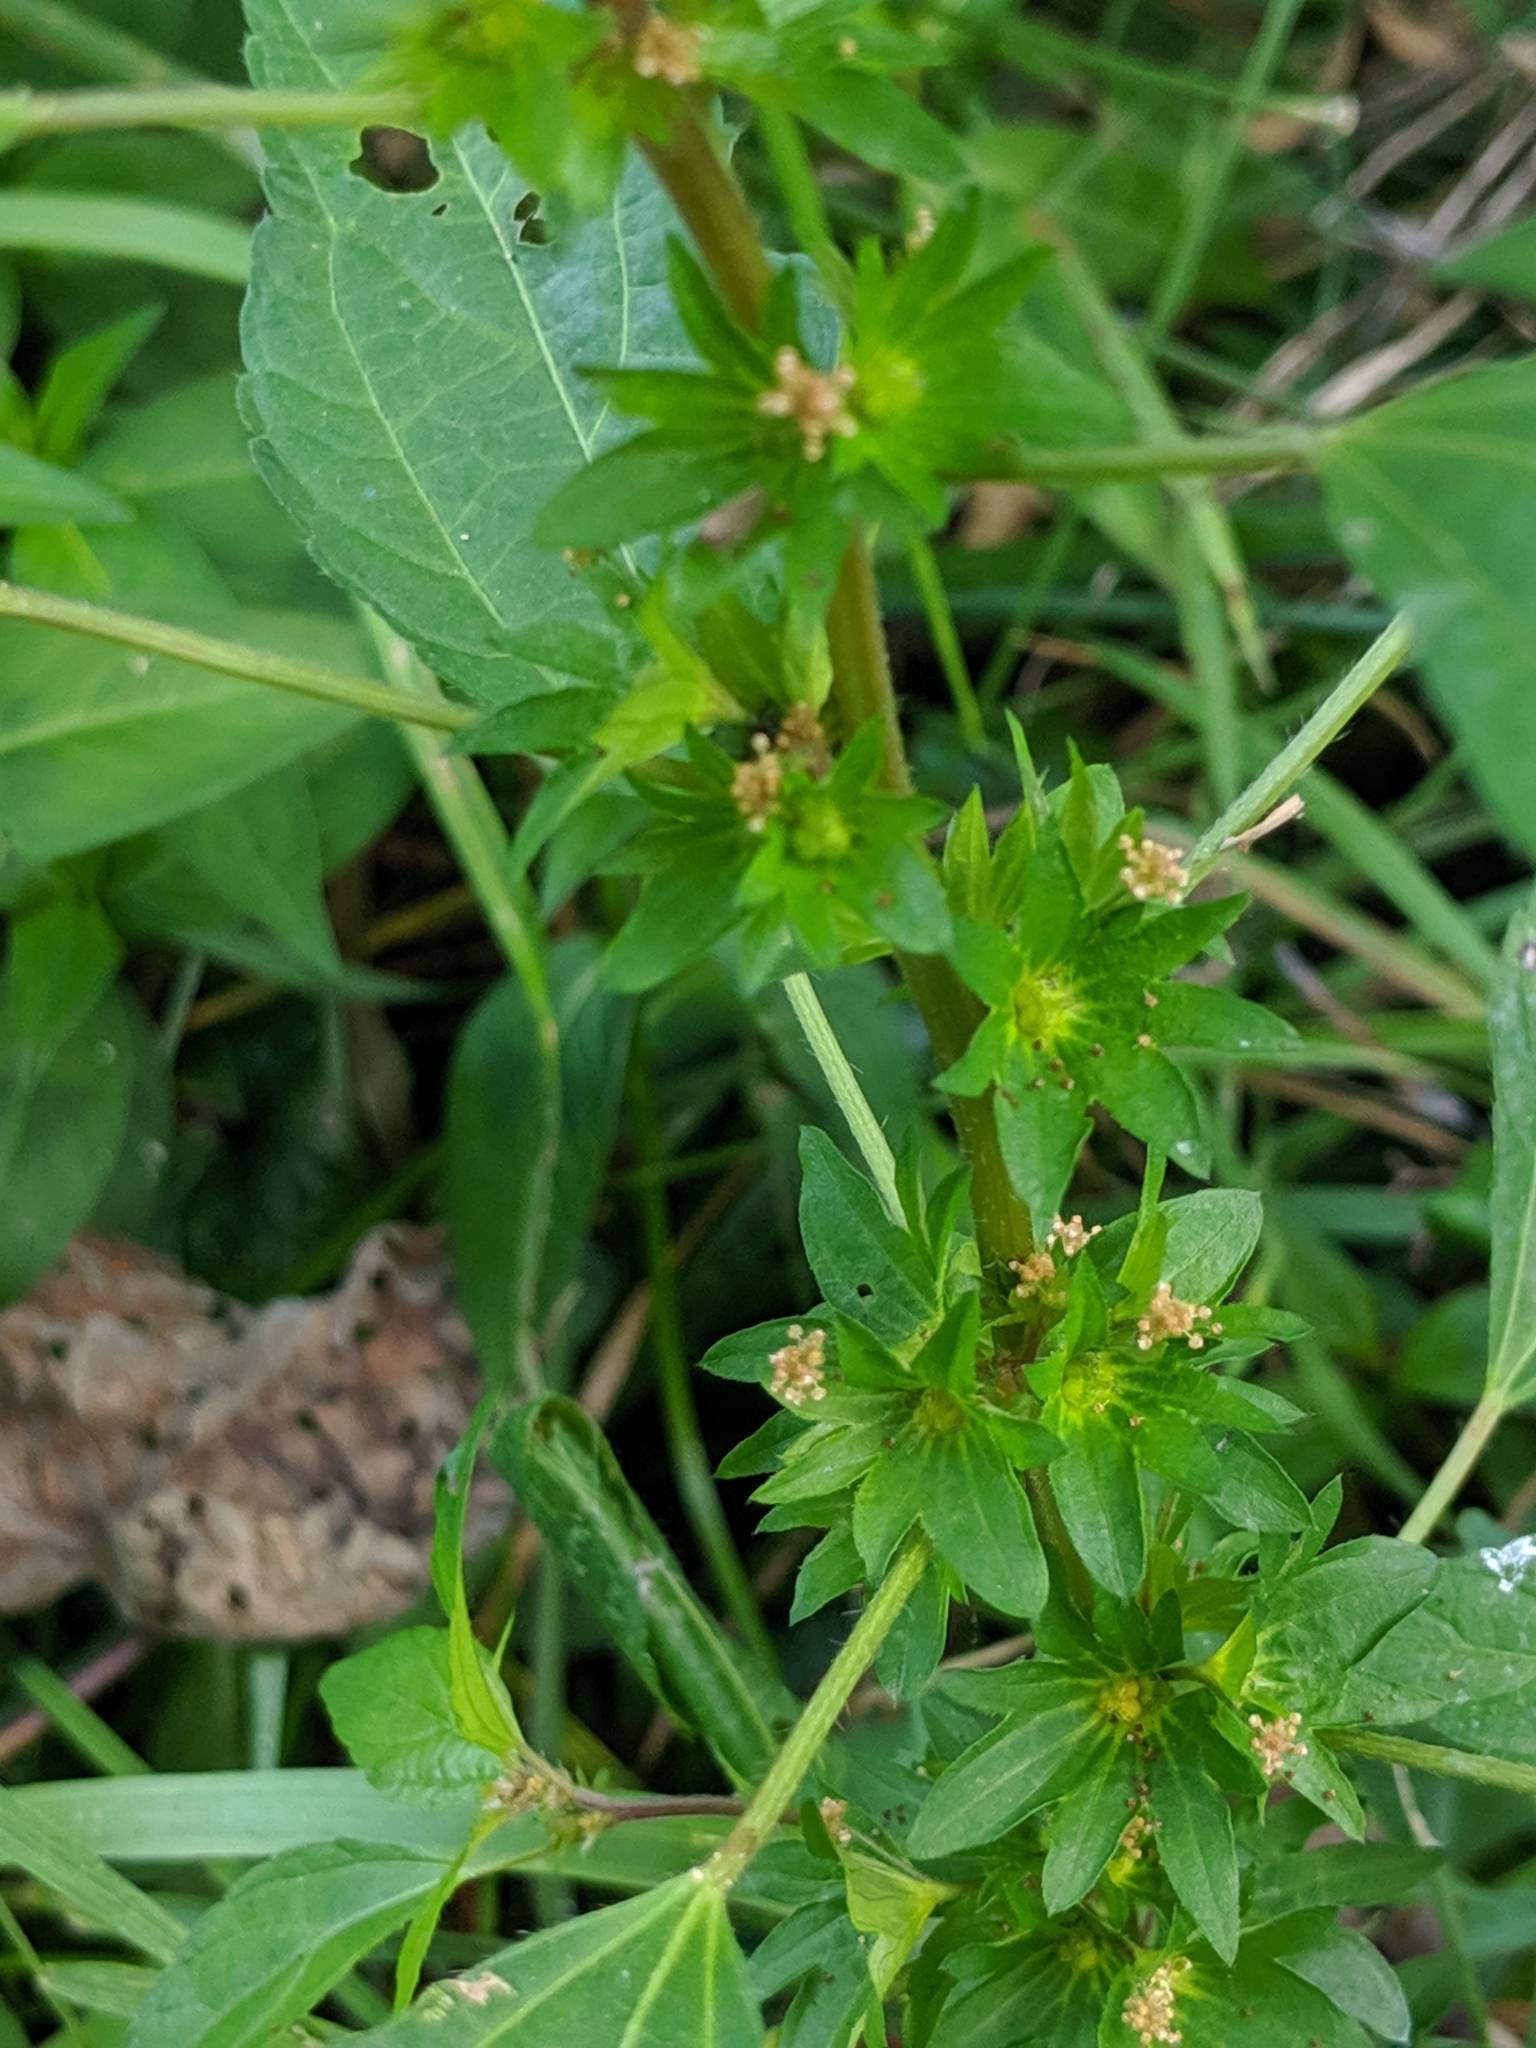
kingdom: Plantae
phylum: Tracheophyta
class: Magnoliopsida
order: Malpighiales
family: Euphorbiaceae
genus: Acalypha
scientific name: Acalypha rhomboidea
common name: Rhombic copperleaf
